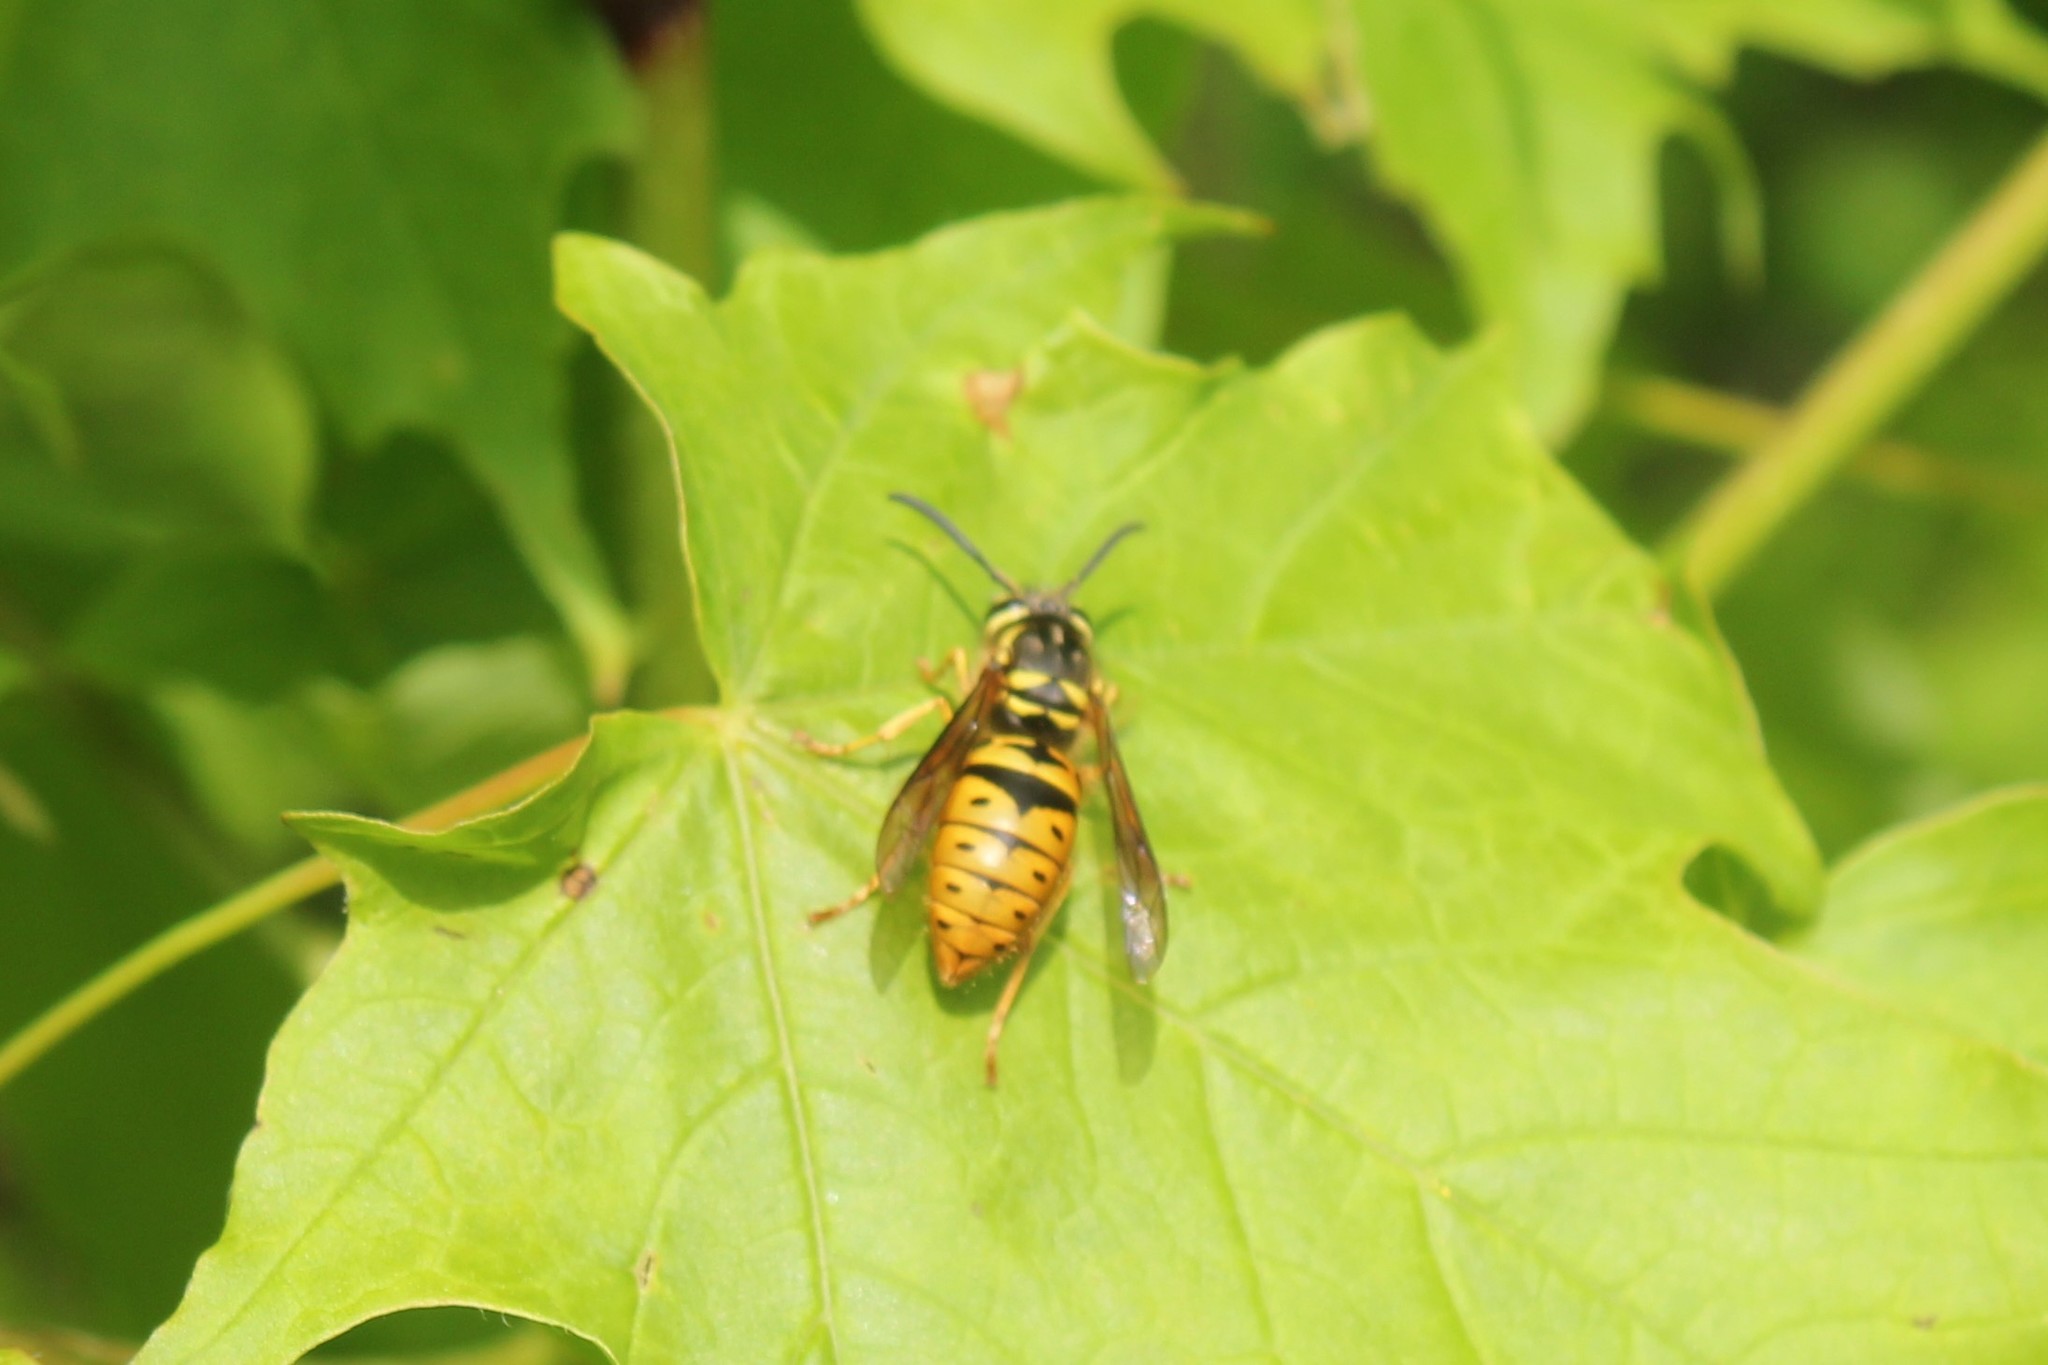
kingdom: Animalia
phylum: Arthropoda
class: Insecta
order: Hymenoptera
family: Vespidae
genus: Vespula
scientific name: Vespula maculifrons
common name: Eastern yellowjacket
